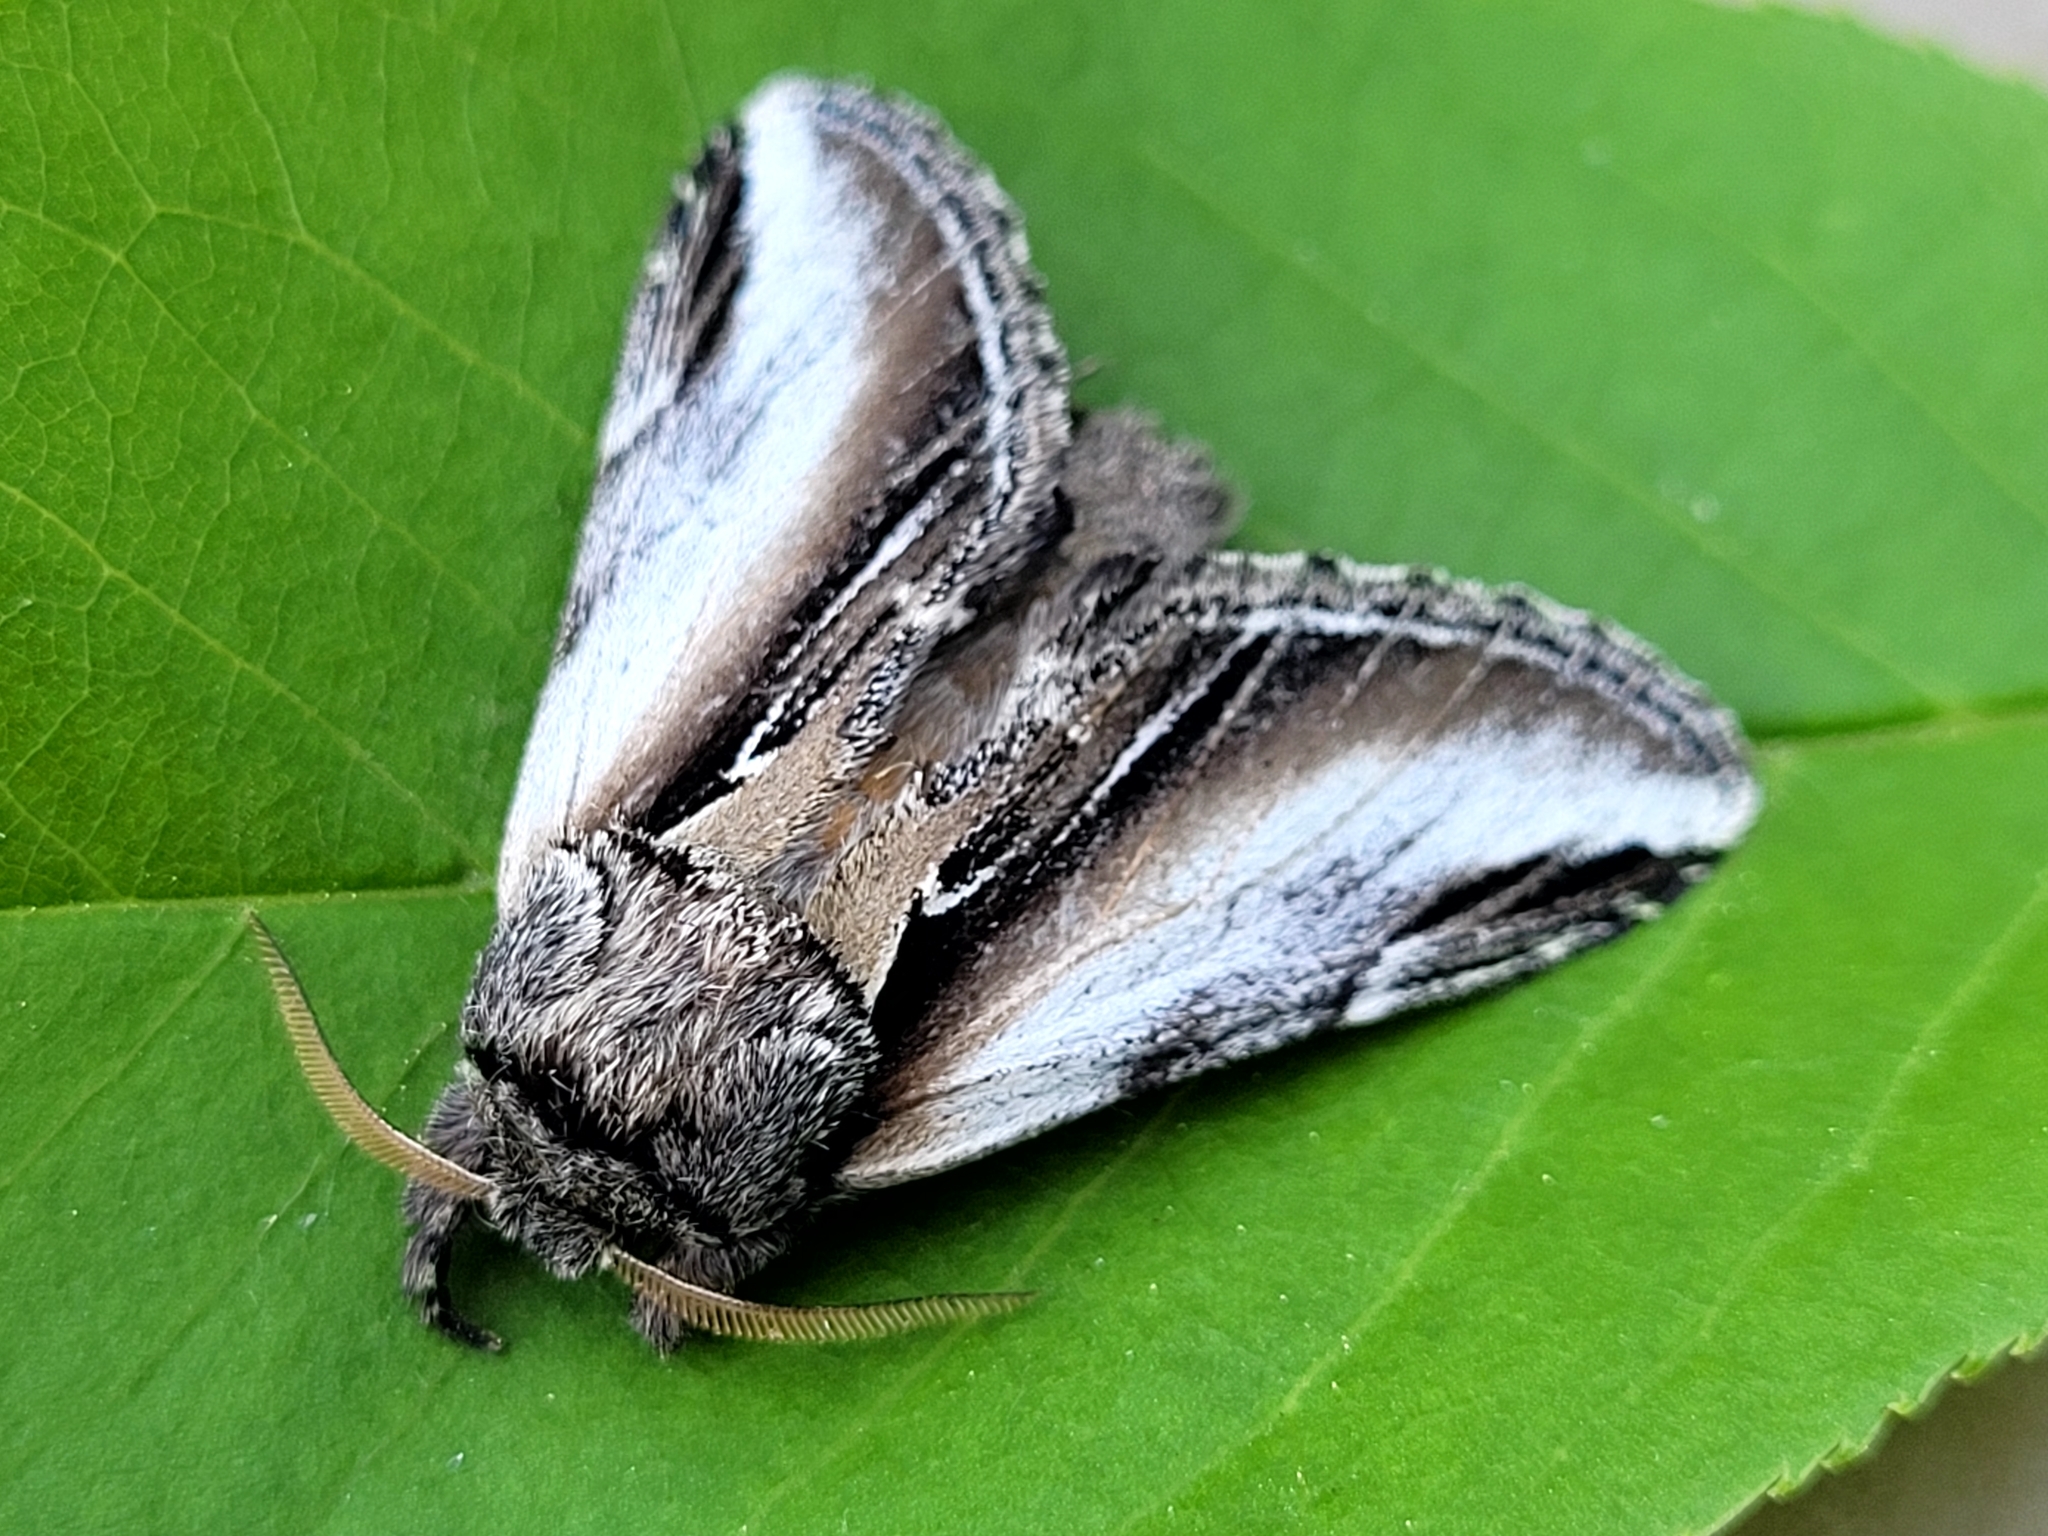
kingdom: Animalia
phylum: Arthropoda
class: Insecta
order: Lepidoptera
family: Notodontidae
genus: Pheosia
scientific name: Pheosia rimosa
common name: Black-rimmed prominent
